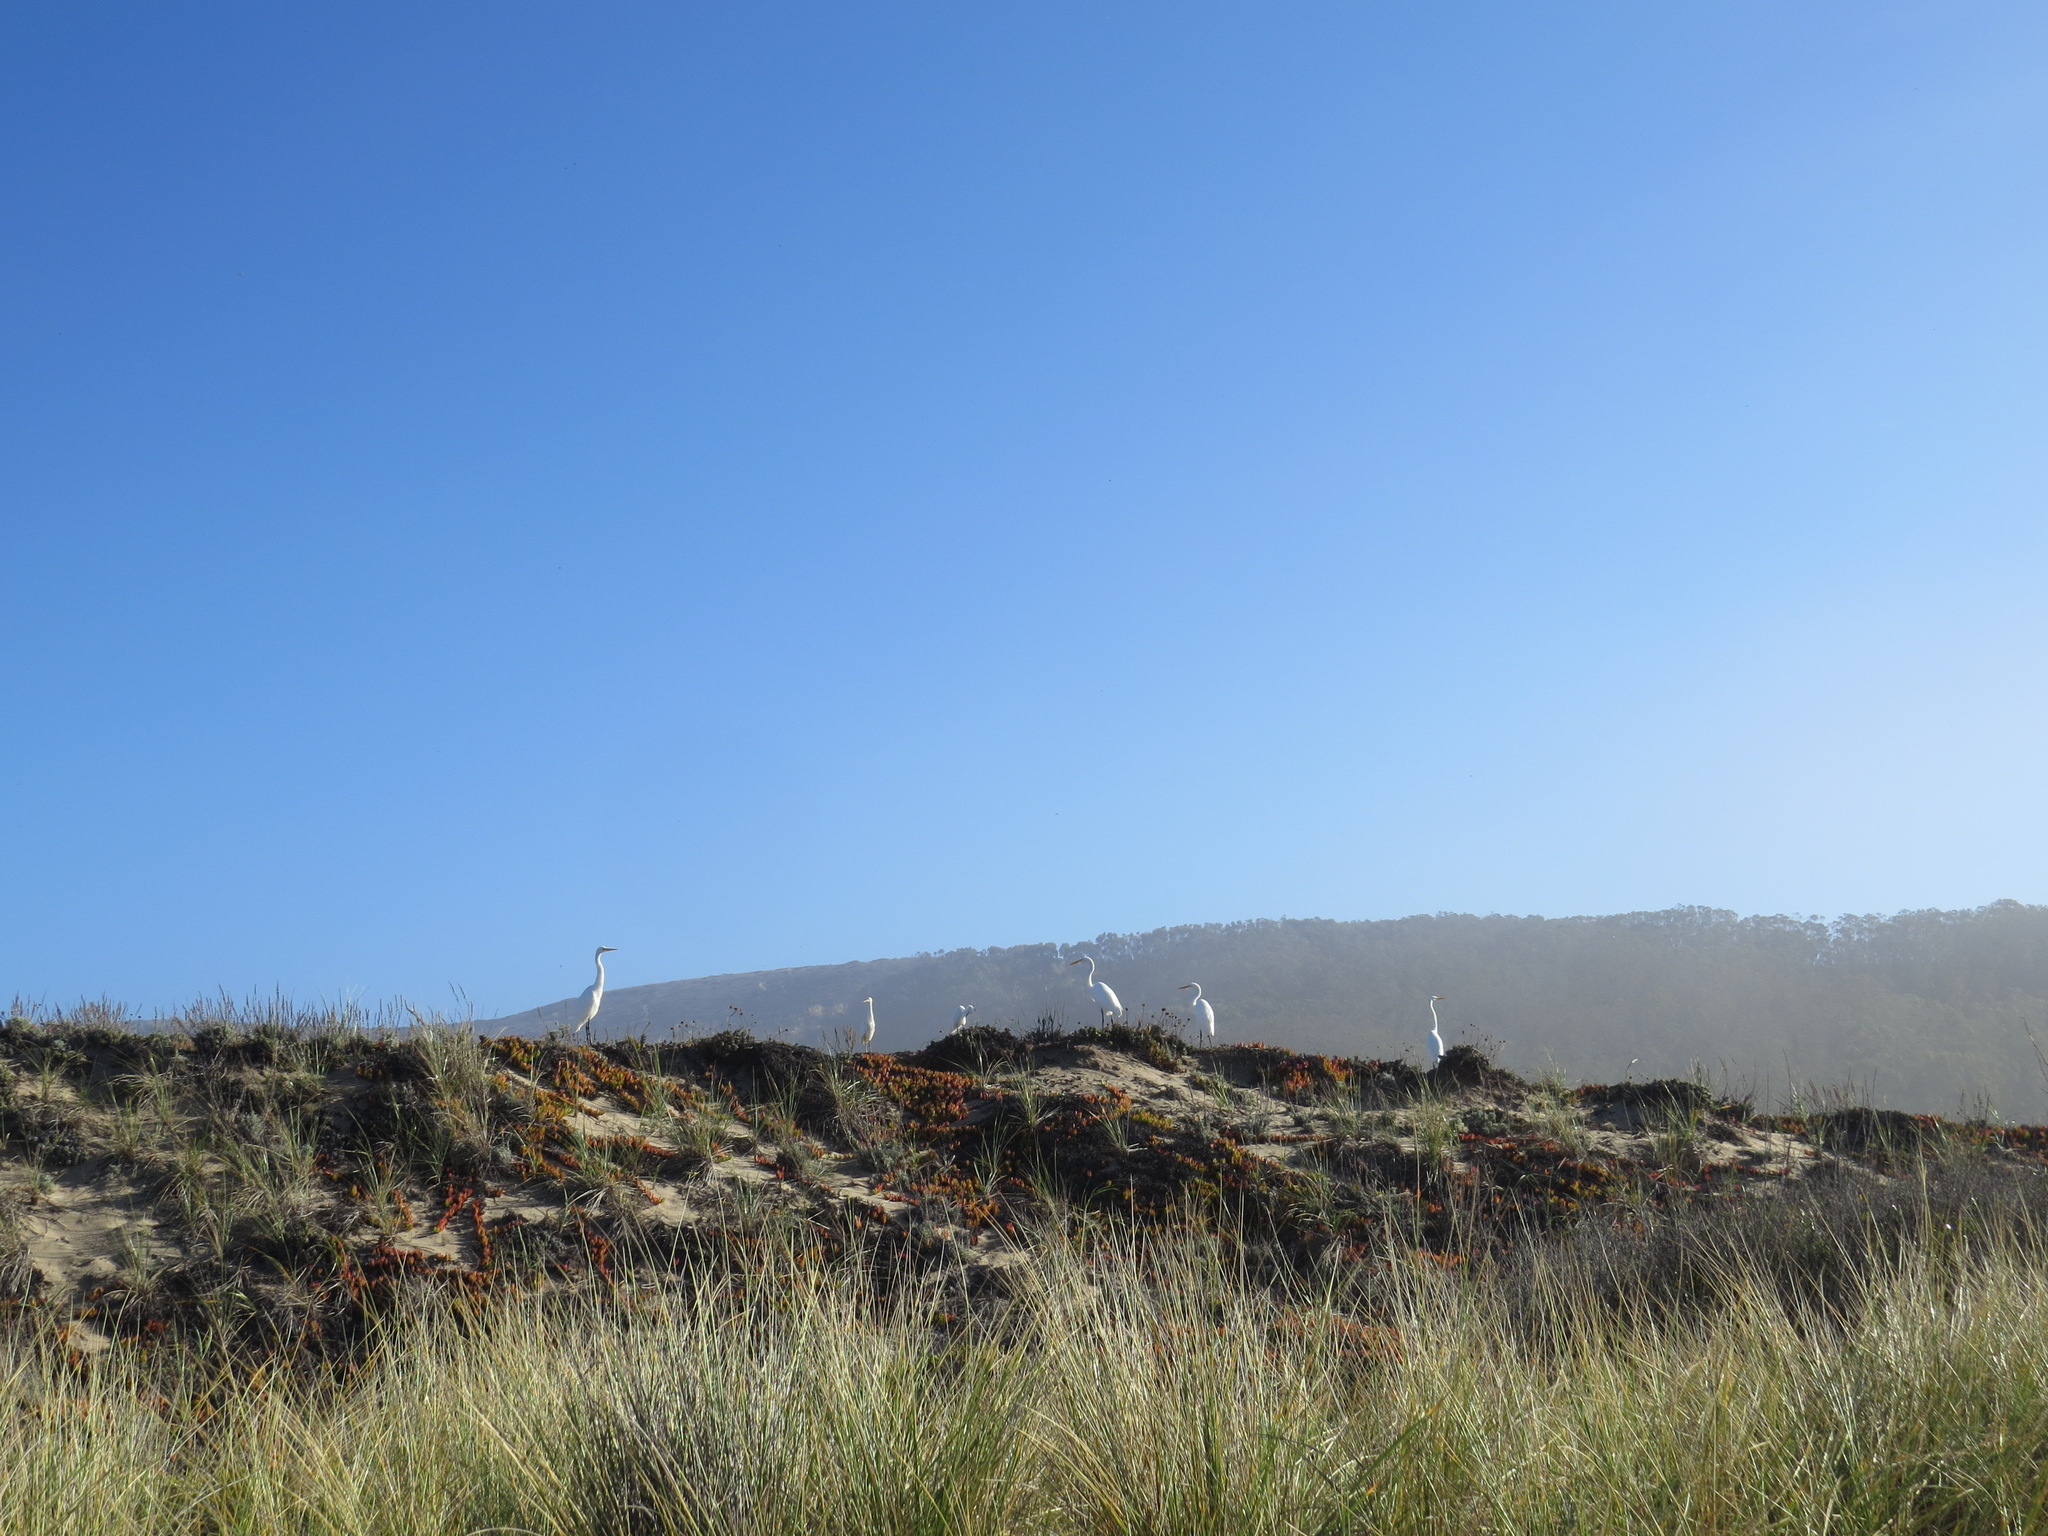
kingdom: Animalia
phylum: Chordata
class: Aves
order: Pelecaniformes
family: Ardeidae
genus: Ardea
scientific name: Ardea alba
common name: Great egret
